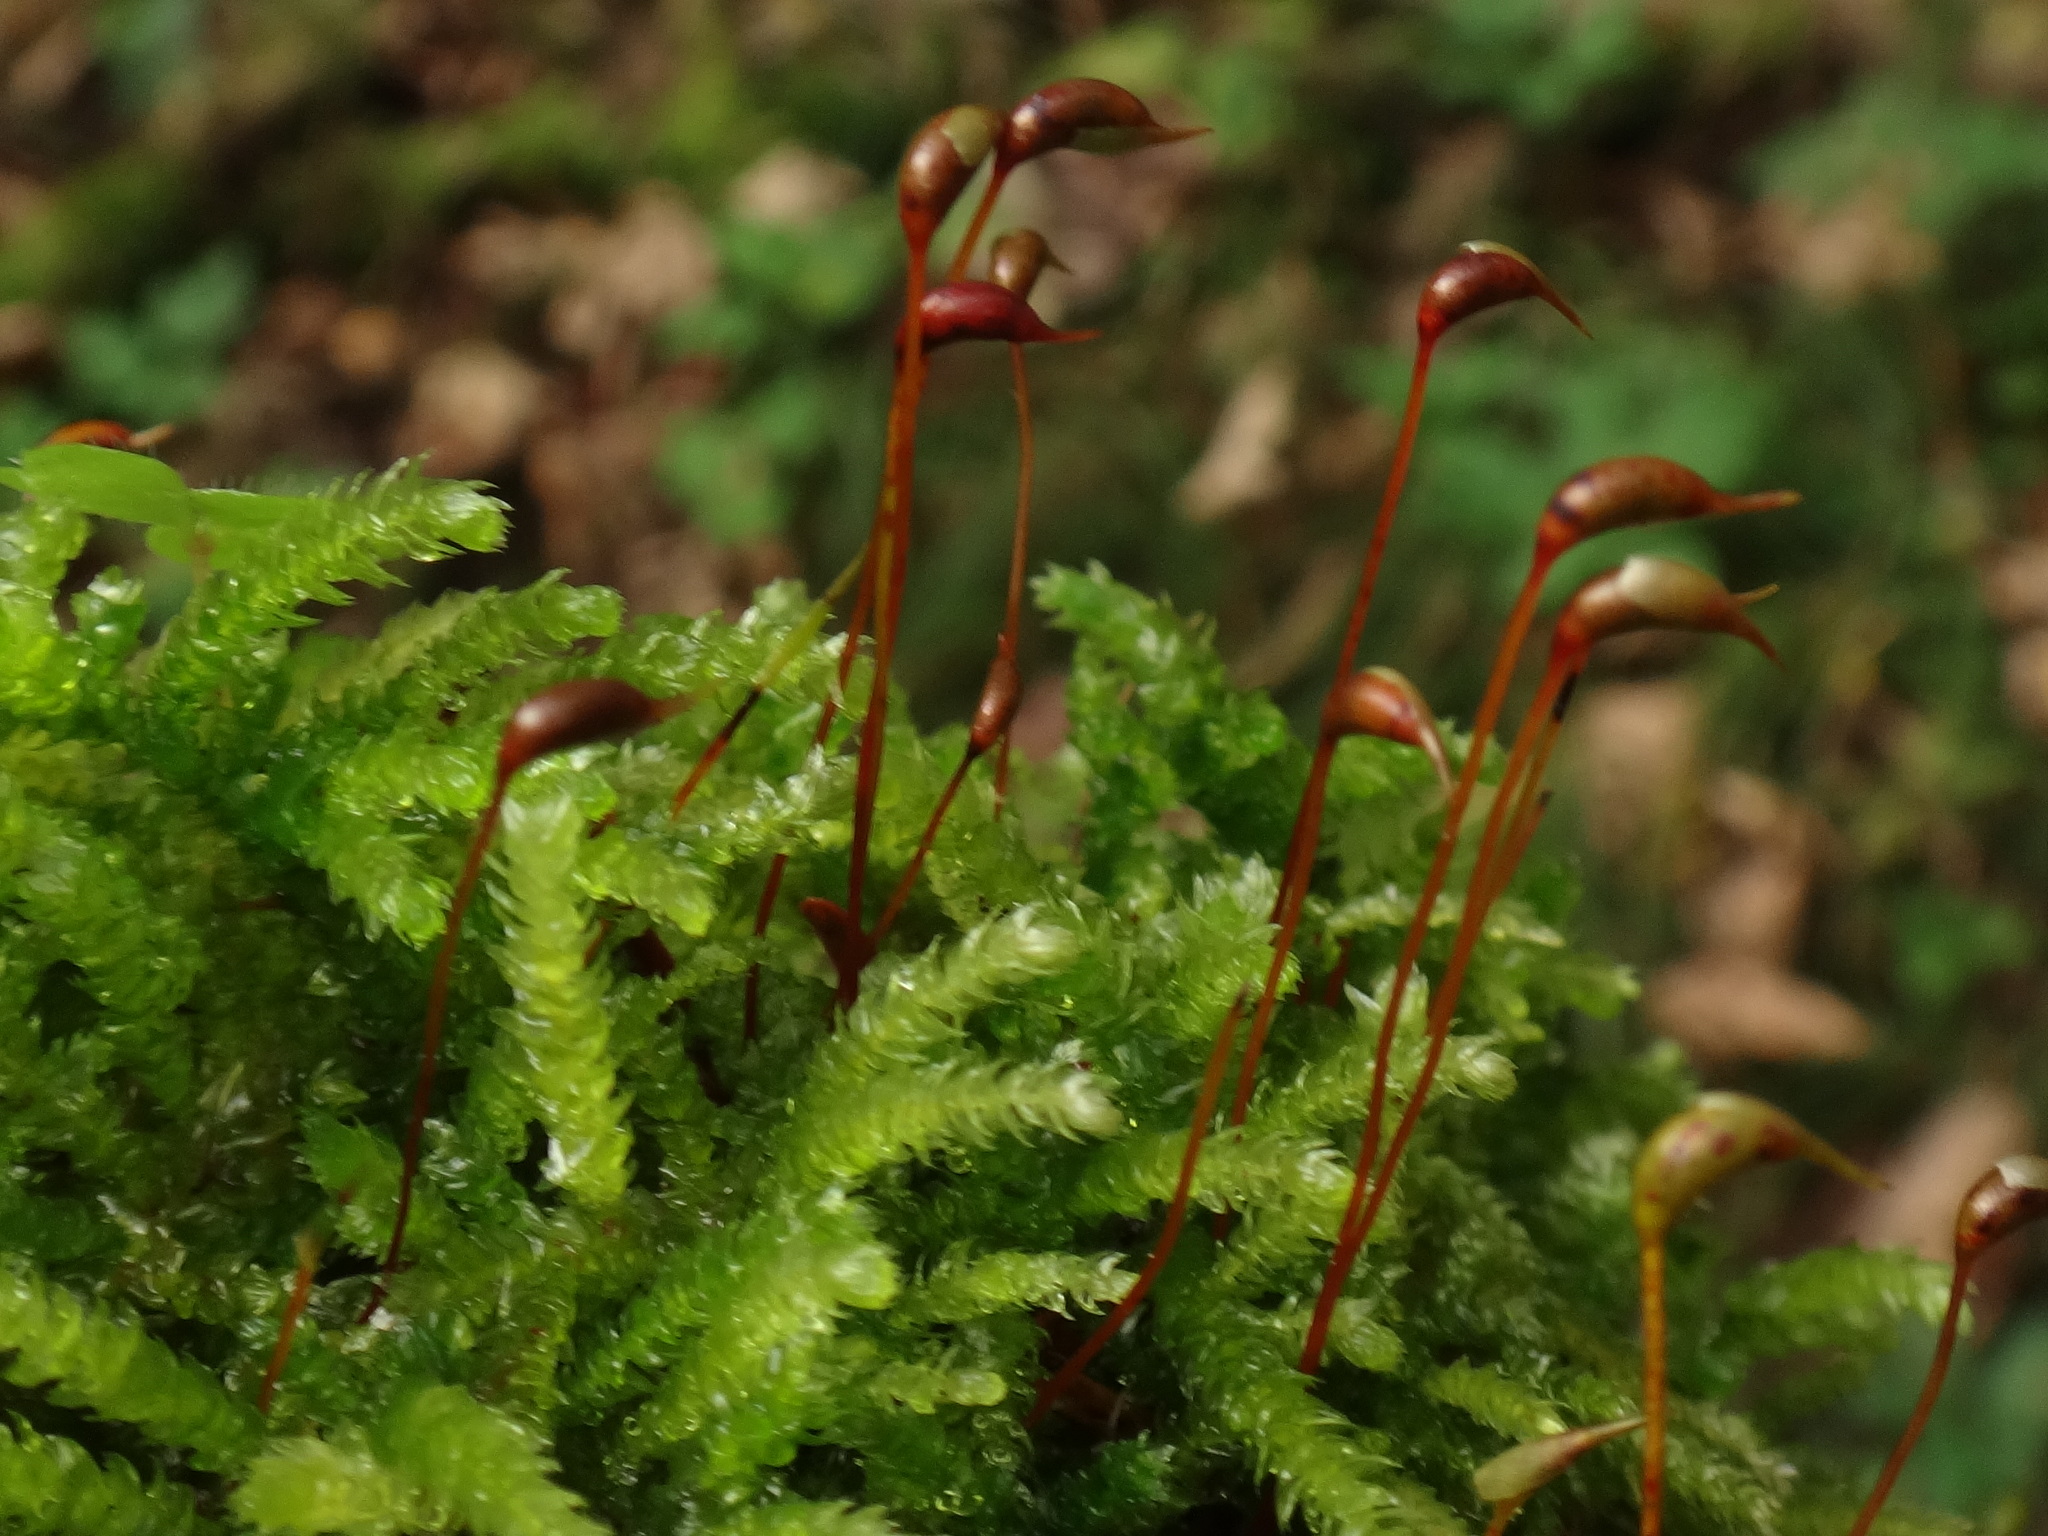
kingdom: Plantae
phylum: Bryophyta
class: Bryopsida
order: Hypnales
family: Brachytheciaceae
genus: Eurhynchium
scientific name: Eurhynchium angustirete
